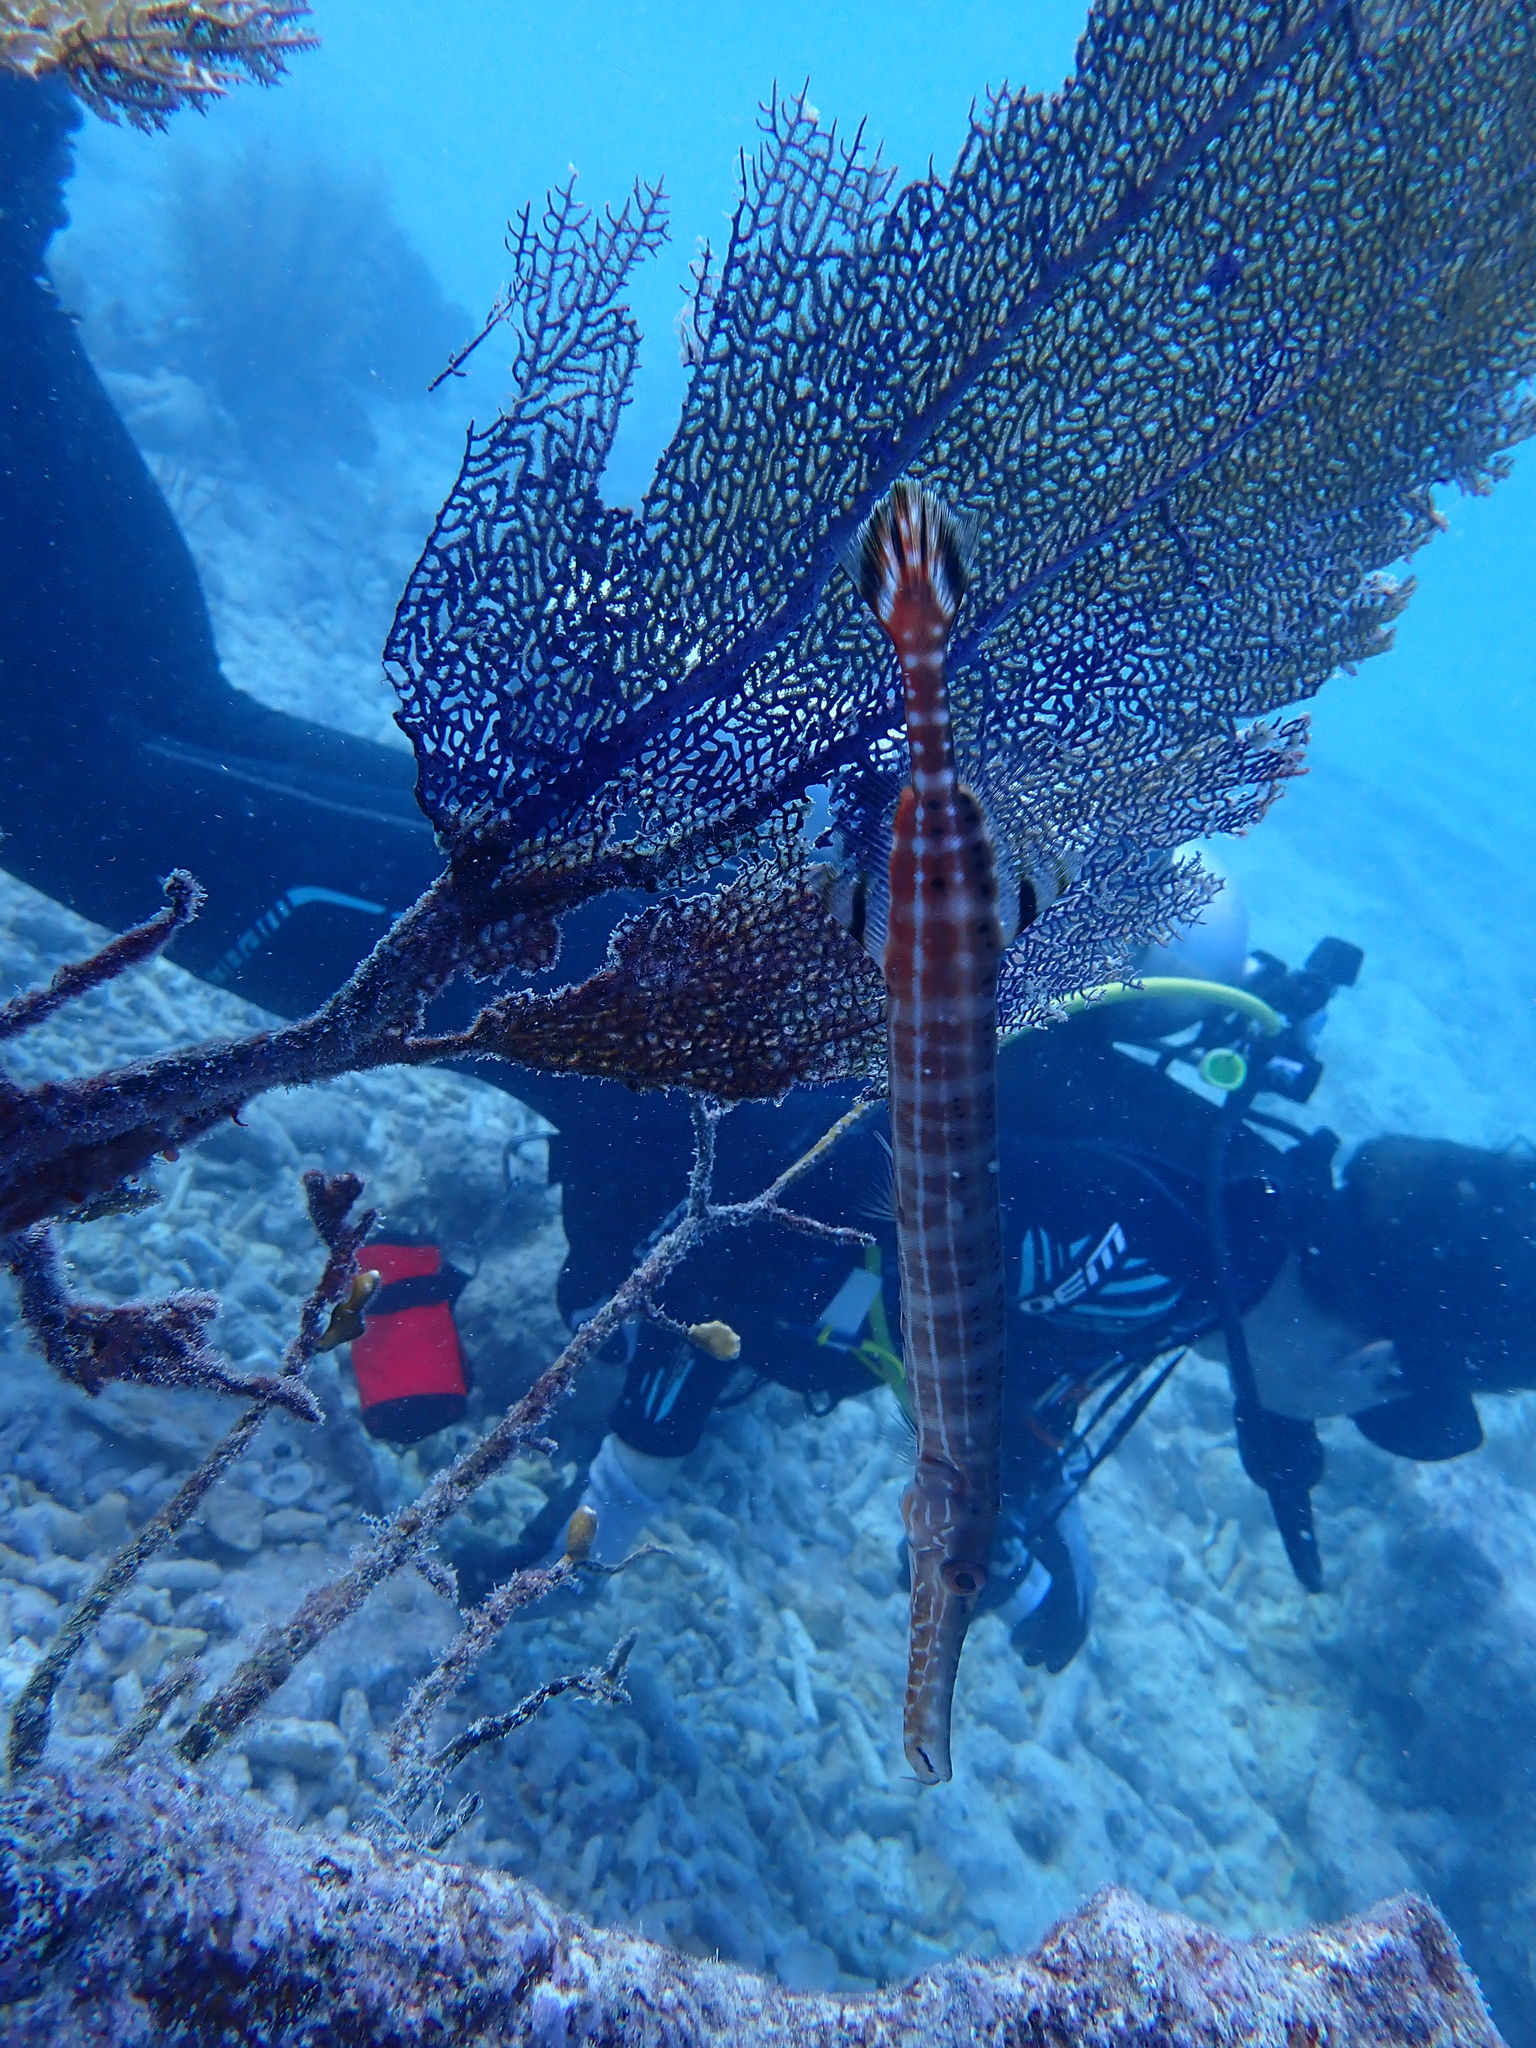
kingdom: Animalia
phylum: Chordata
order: Syngnathiformes
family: Aulostomidae
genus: Aulostomus
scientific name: Aulostomus maculatus
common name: West atlantic trumpetfish
